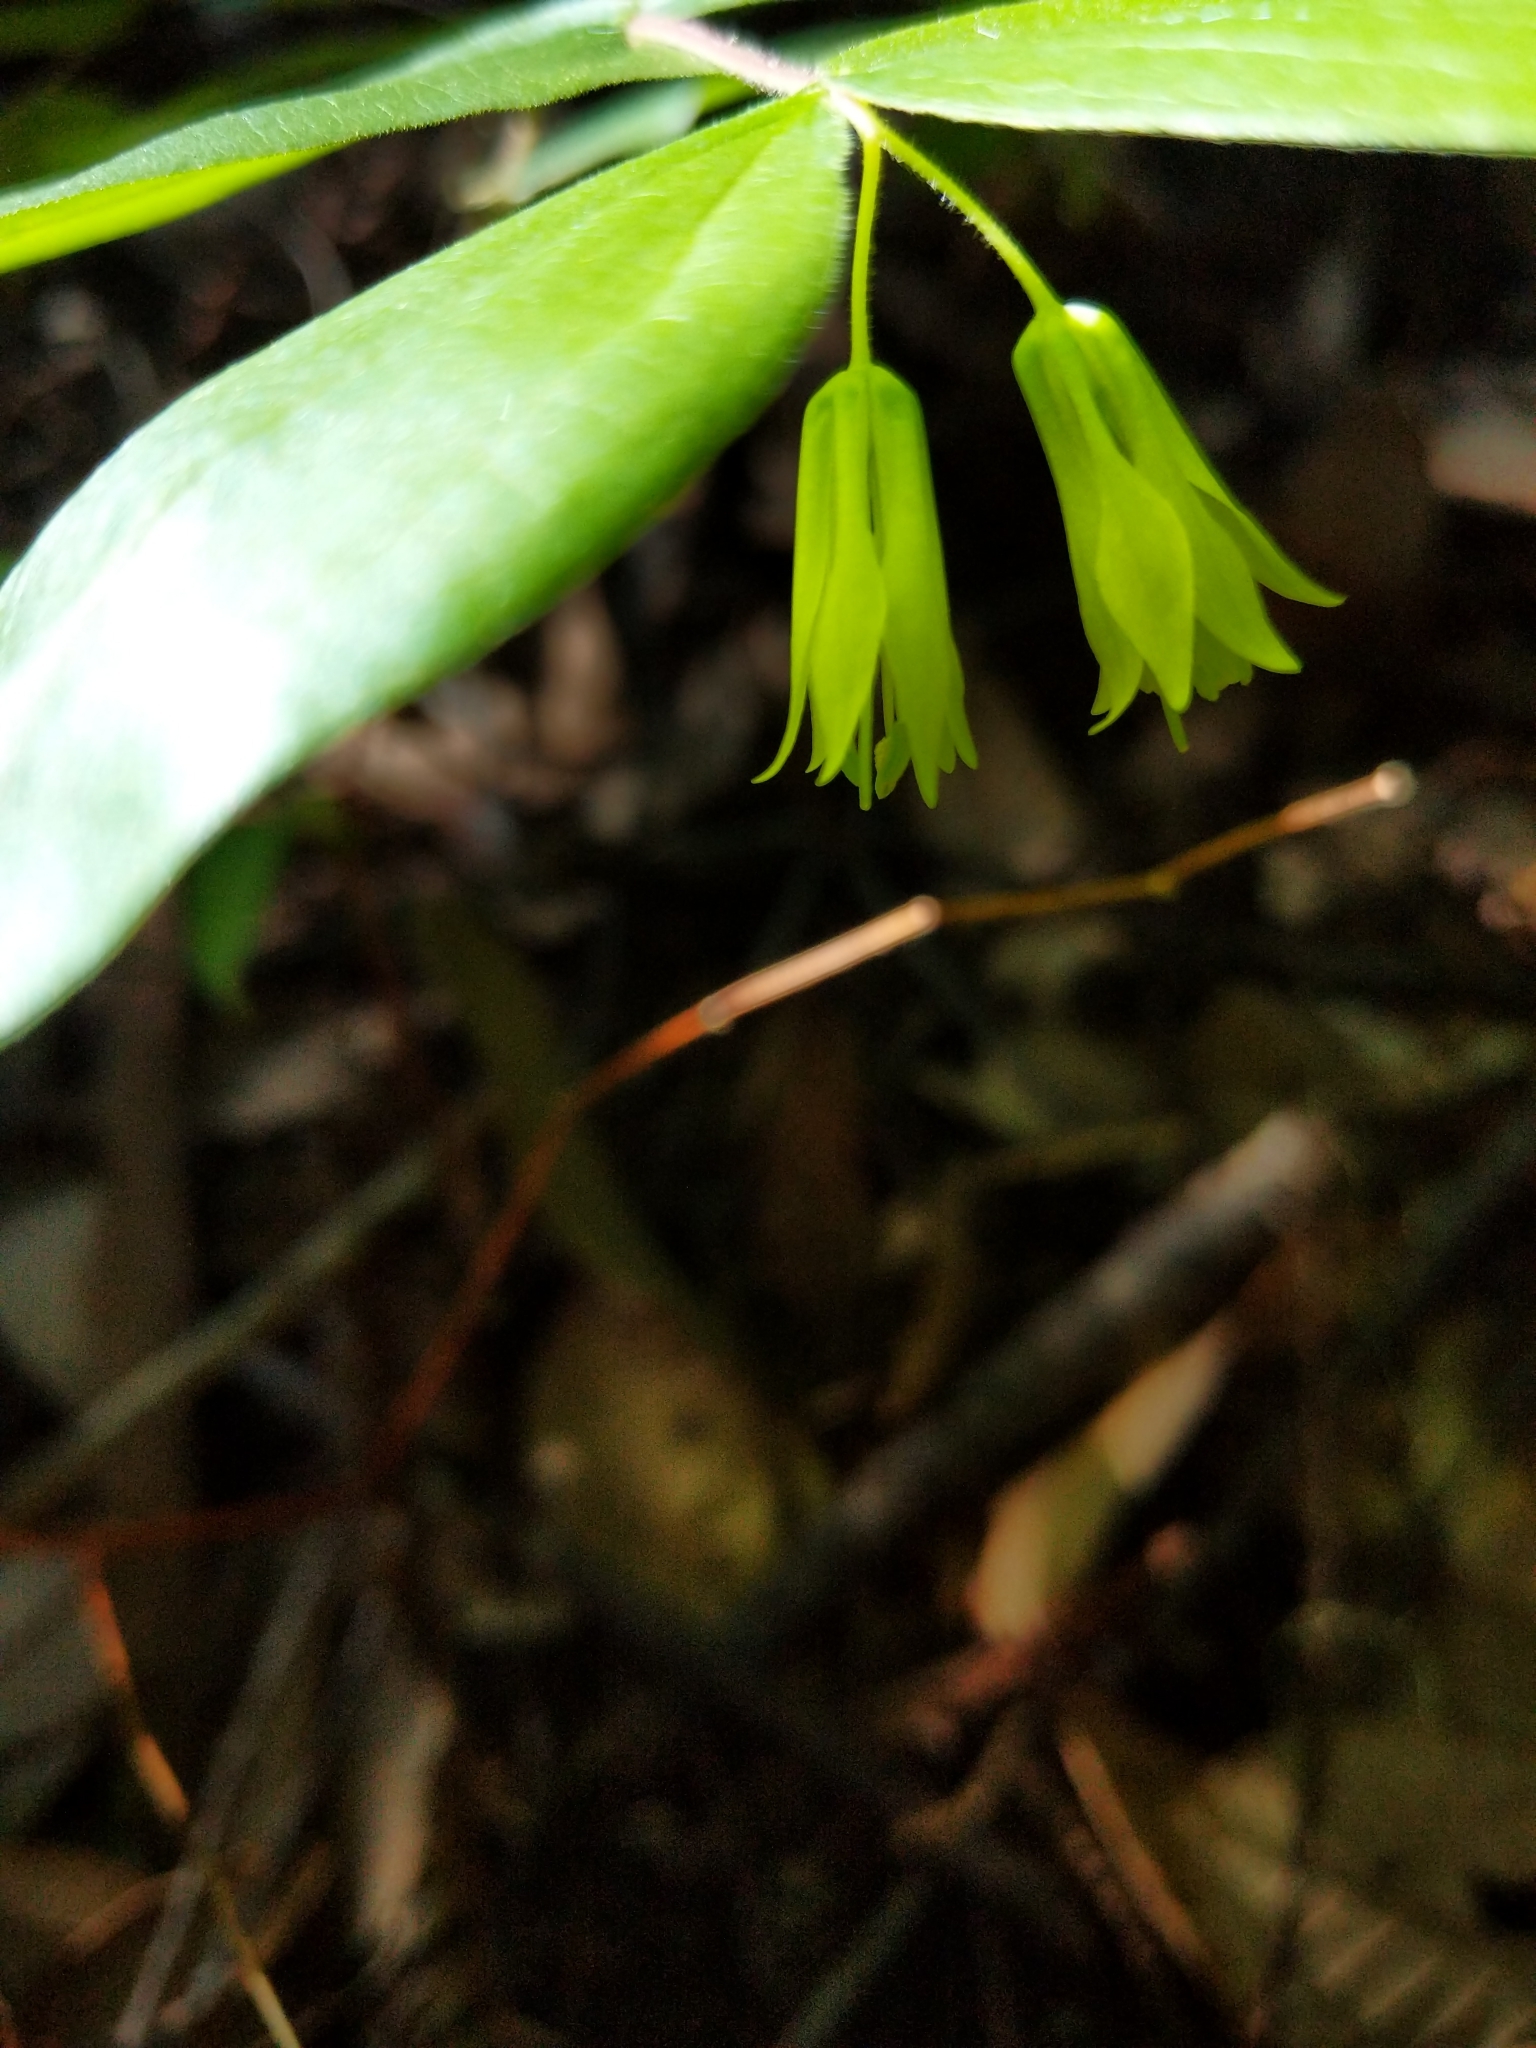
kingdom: Plantae
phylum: Tracheophyta
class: Liliopsida
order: Liliales
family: Liliaceae
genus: Prosartes
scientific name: Prosartes hookeri
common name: Fairy-bells
